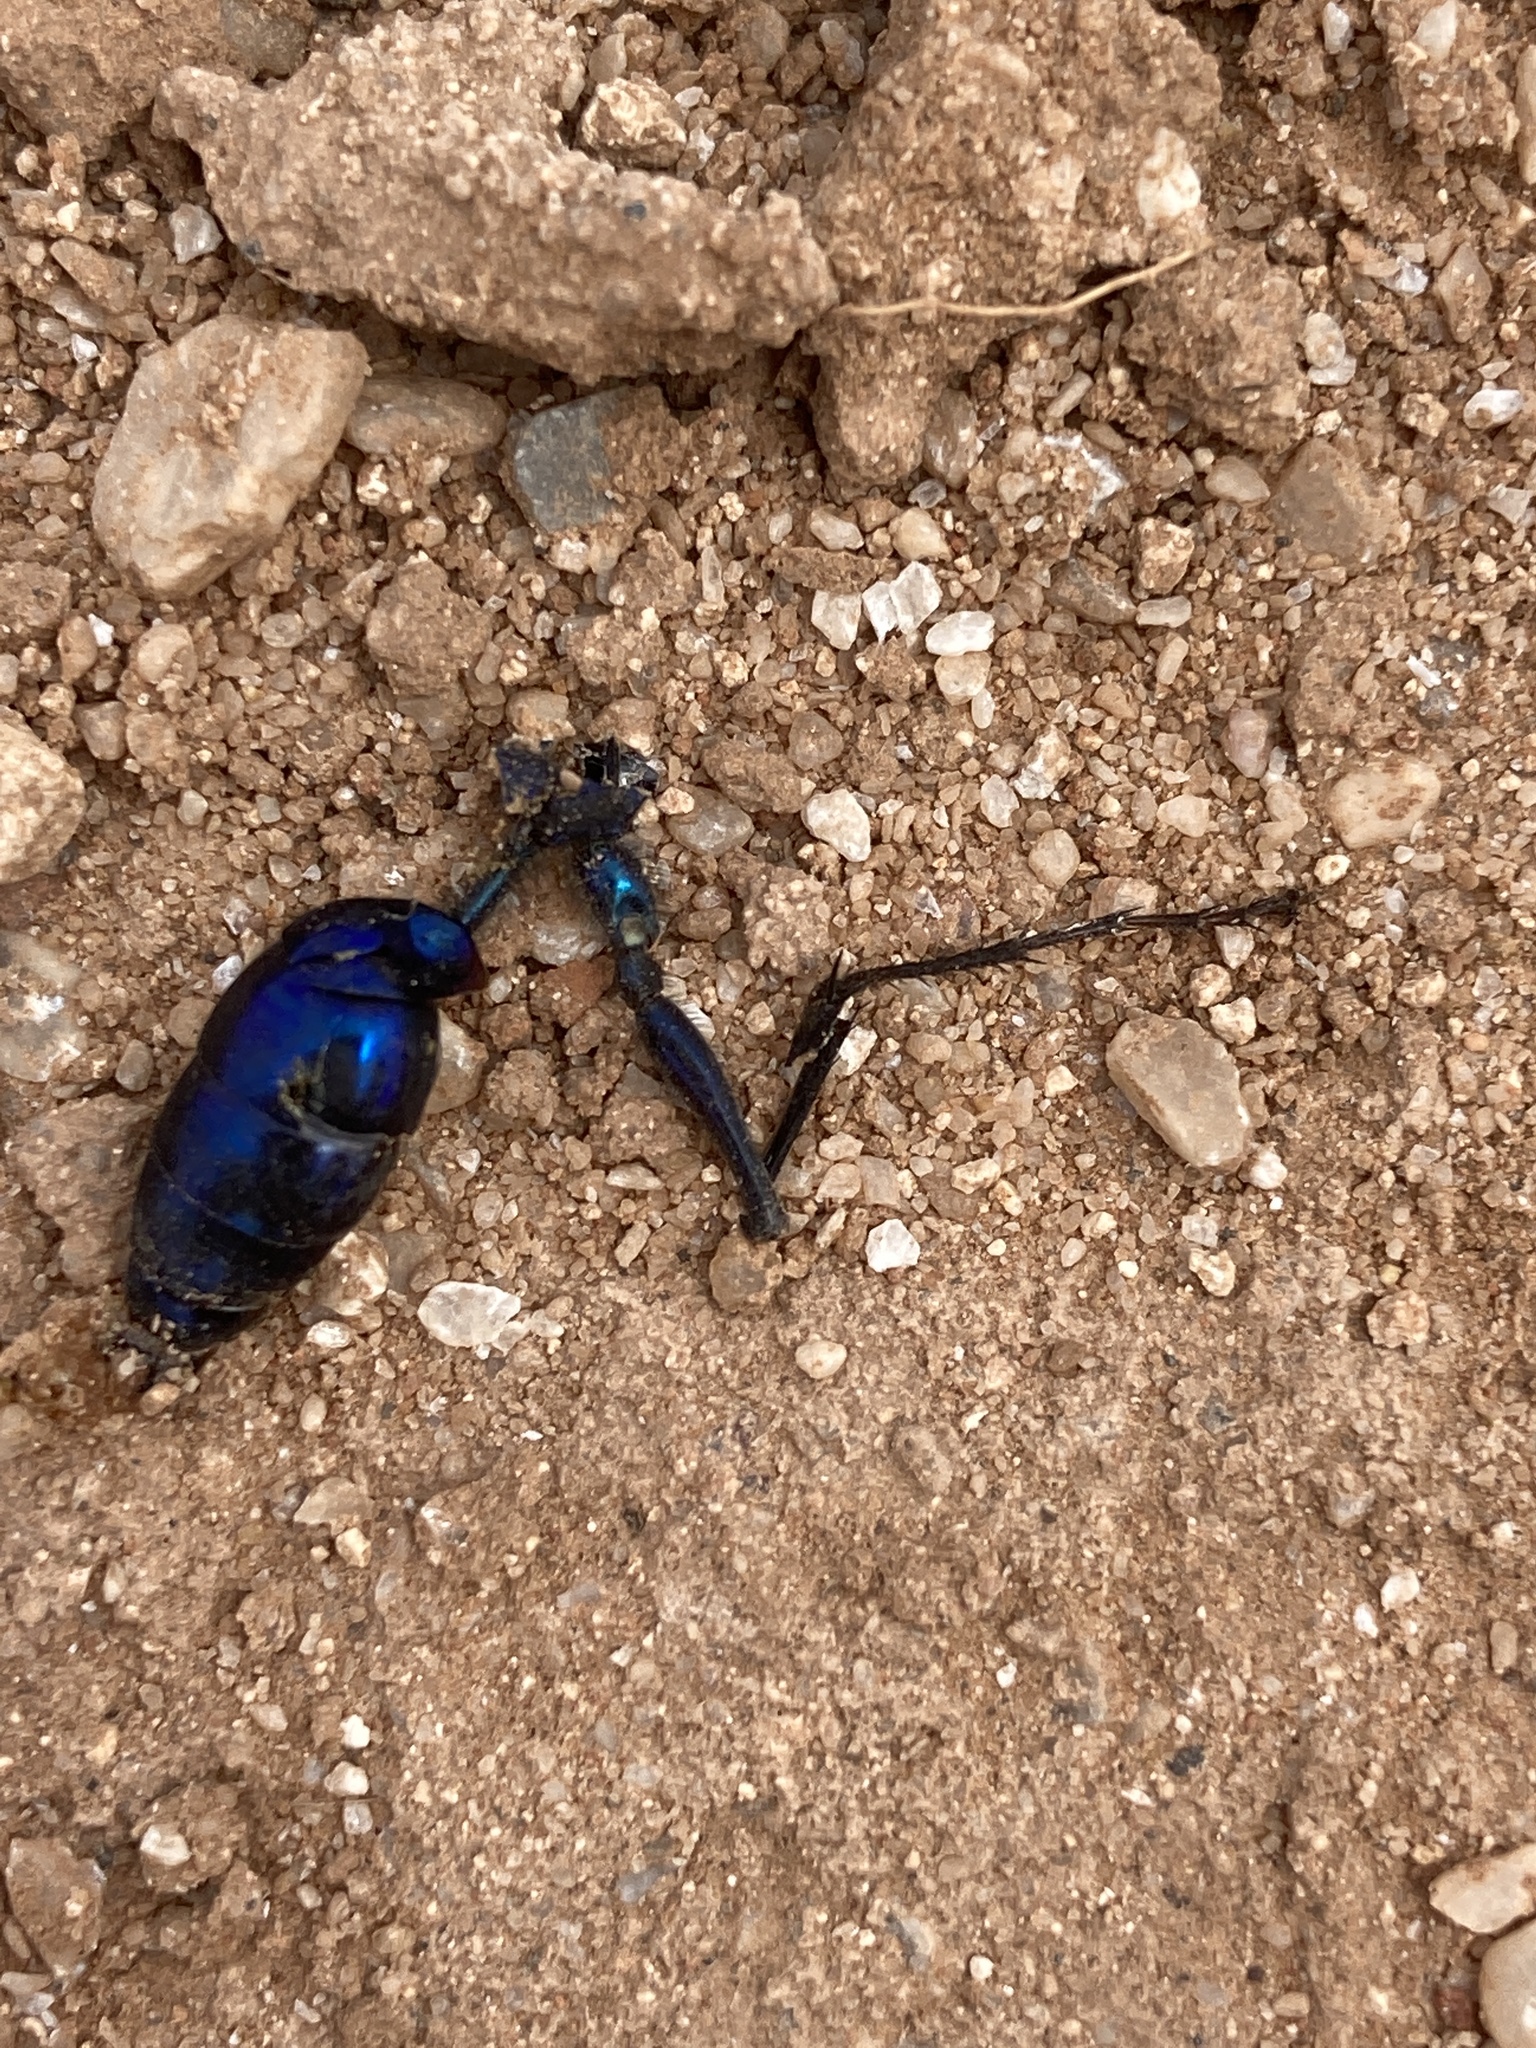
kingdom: Animalia
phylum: Arthropoda
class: Insecta
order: Hymenoptera
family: Sphecidae
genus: Chlorion
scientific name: Chlorion aerarium
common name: Steel-blue cricket hunter
